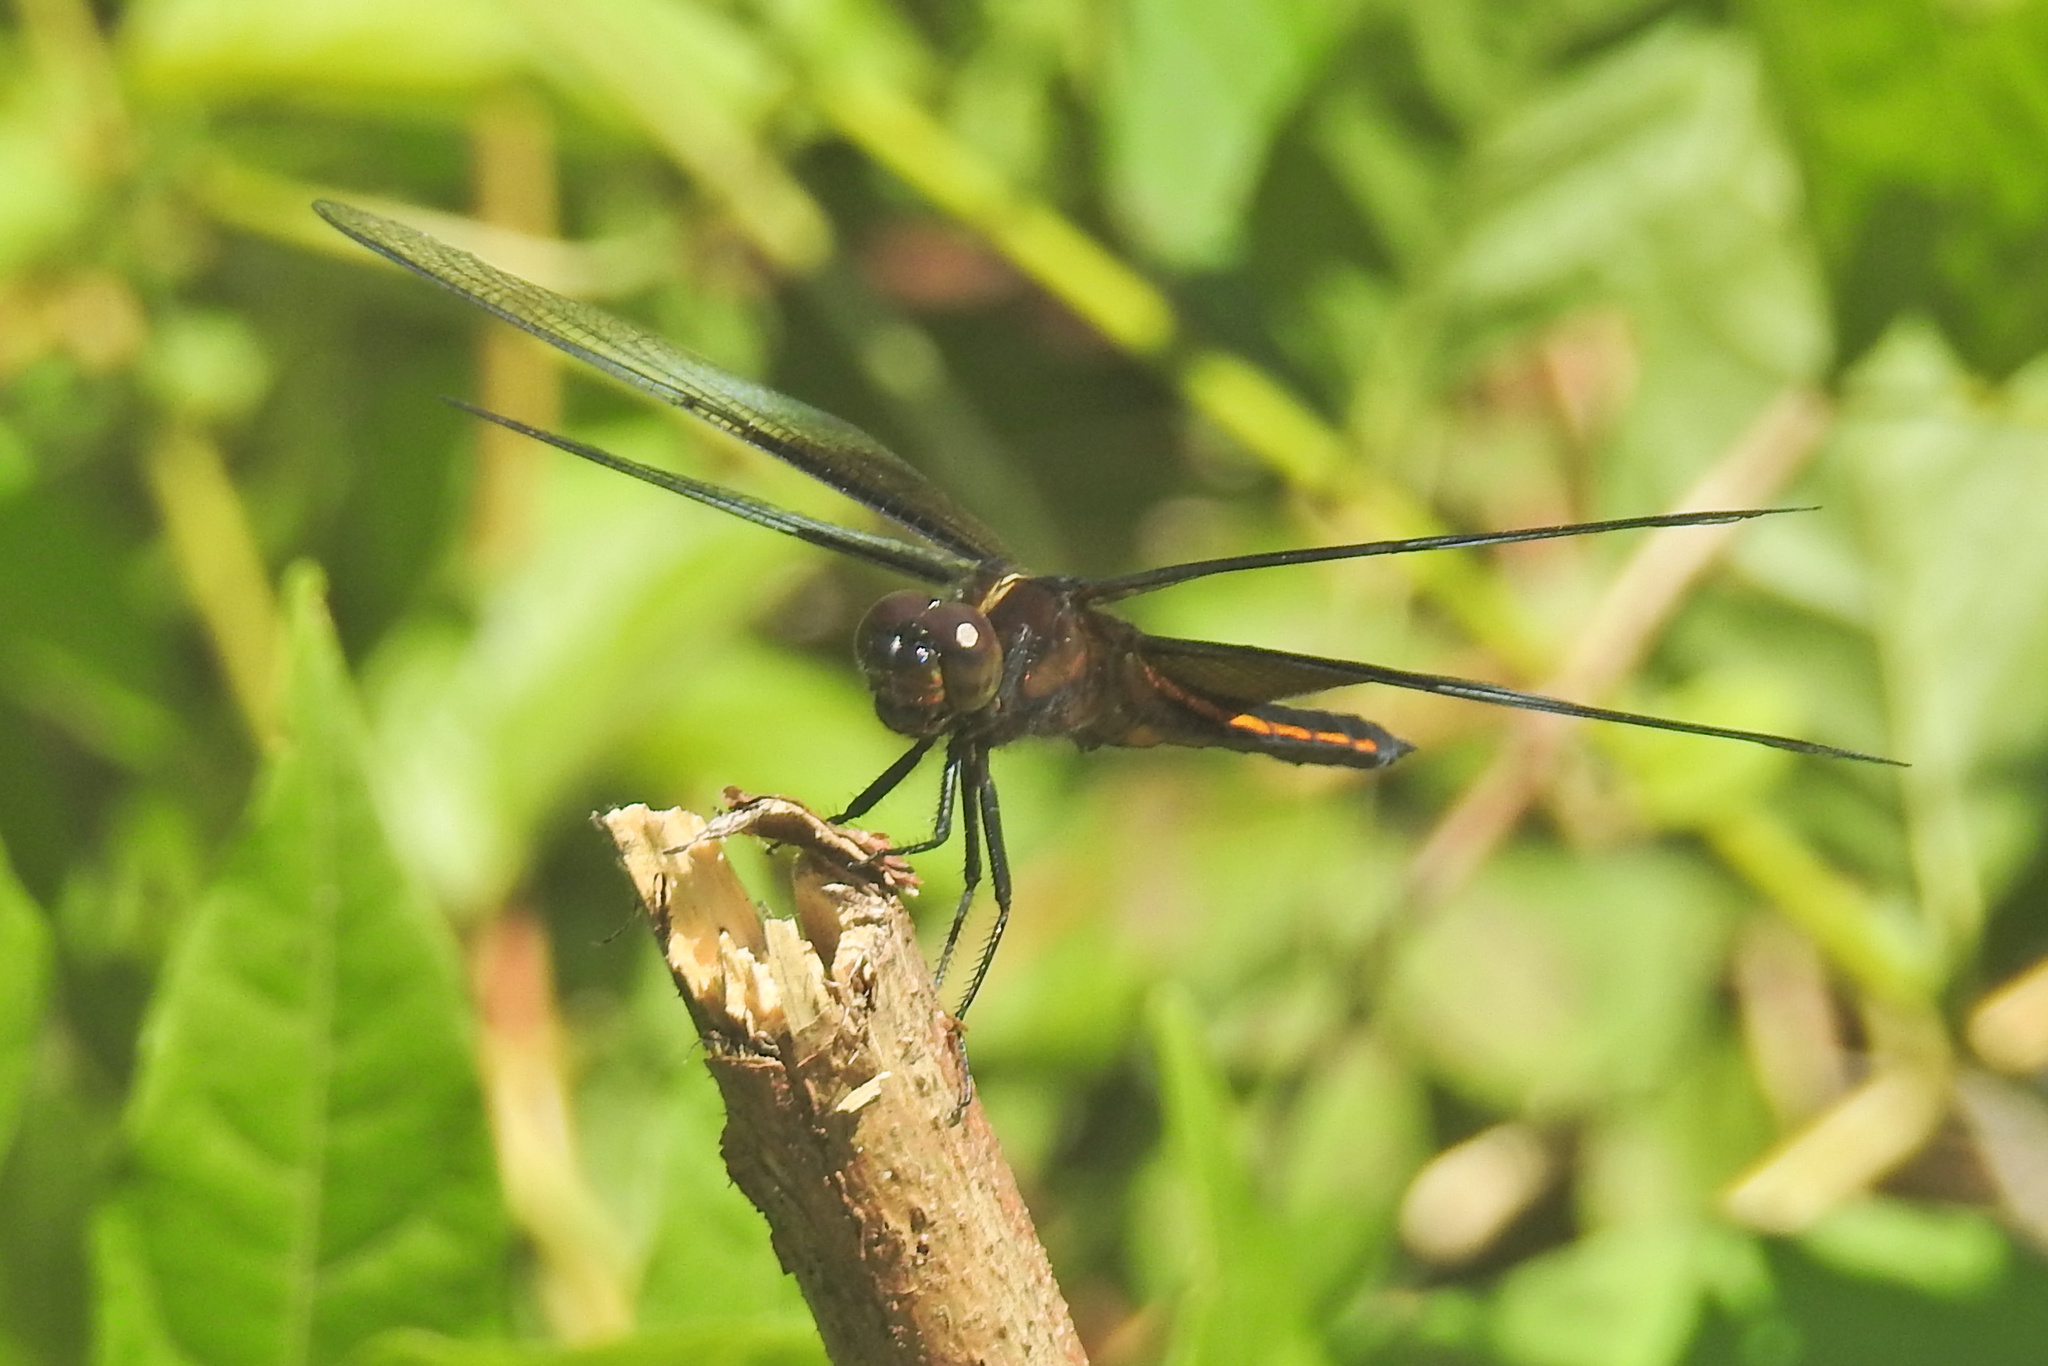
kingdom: Animalia
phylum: Arthropoda
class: Insecta
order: Odonata
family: Libellulidae
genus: Libellula
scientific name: Libellula luctuosa
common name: Widow skimmer
